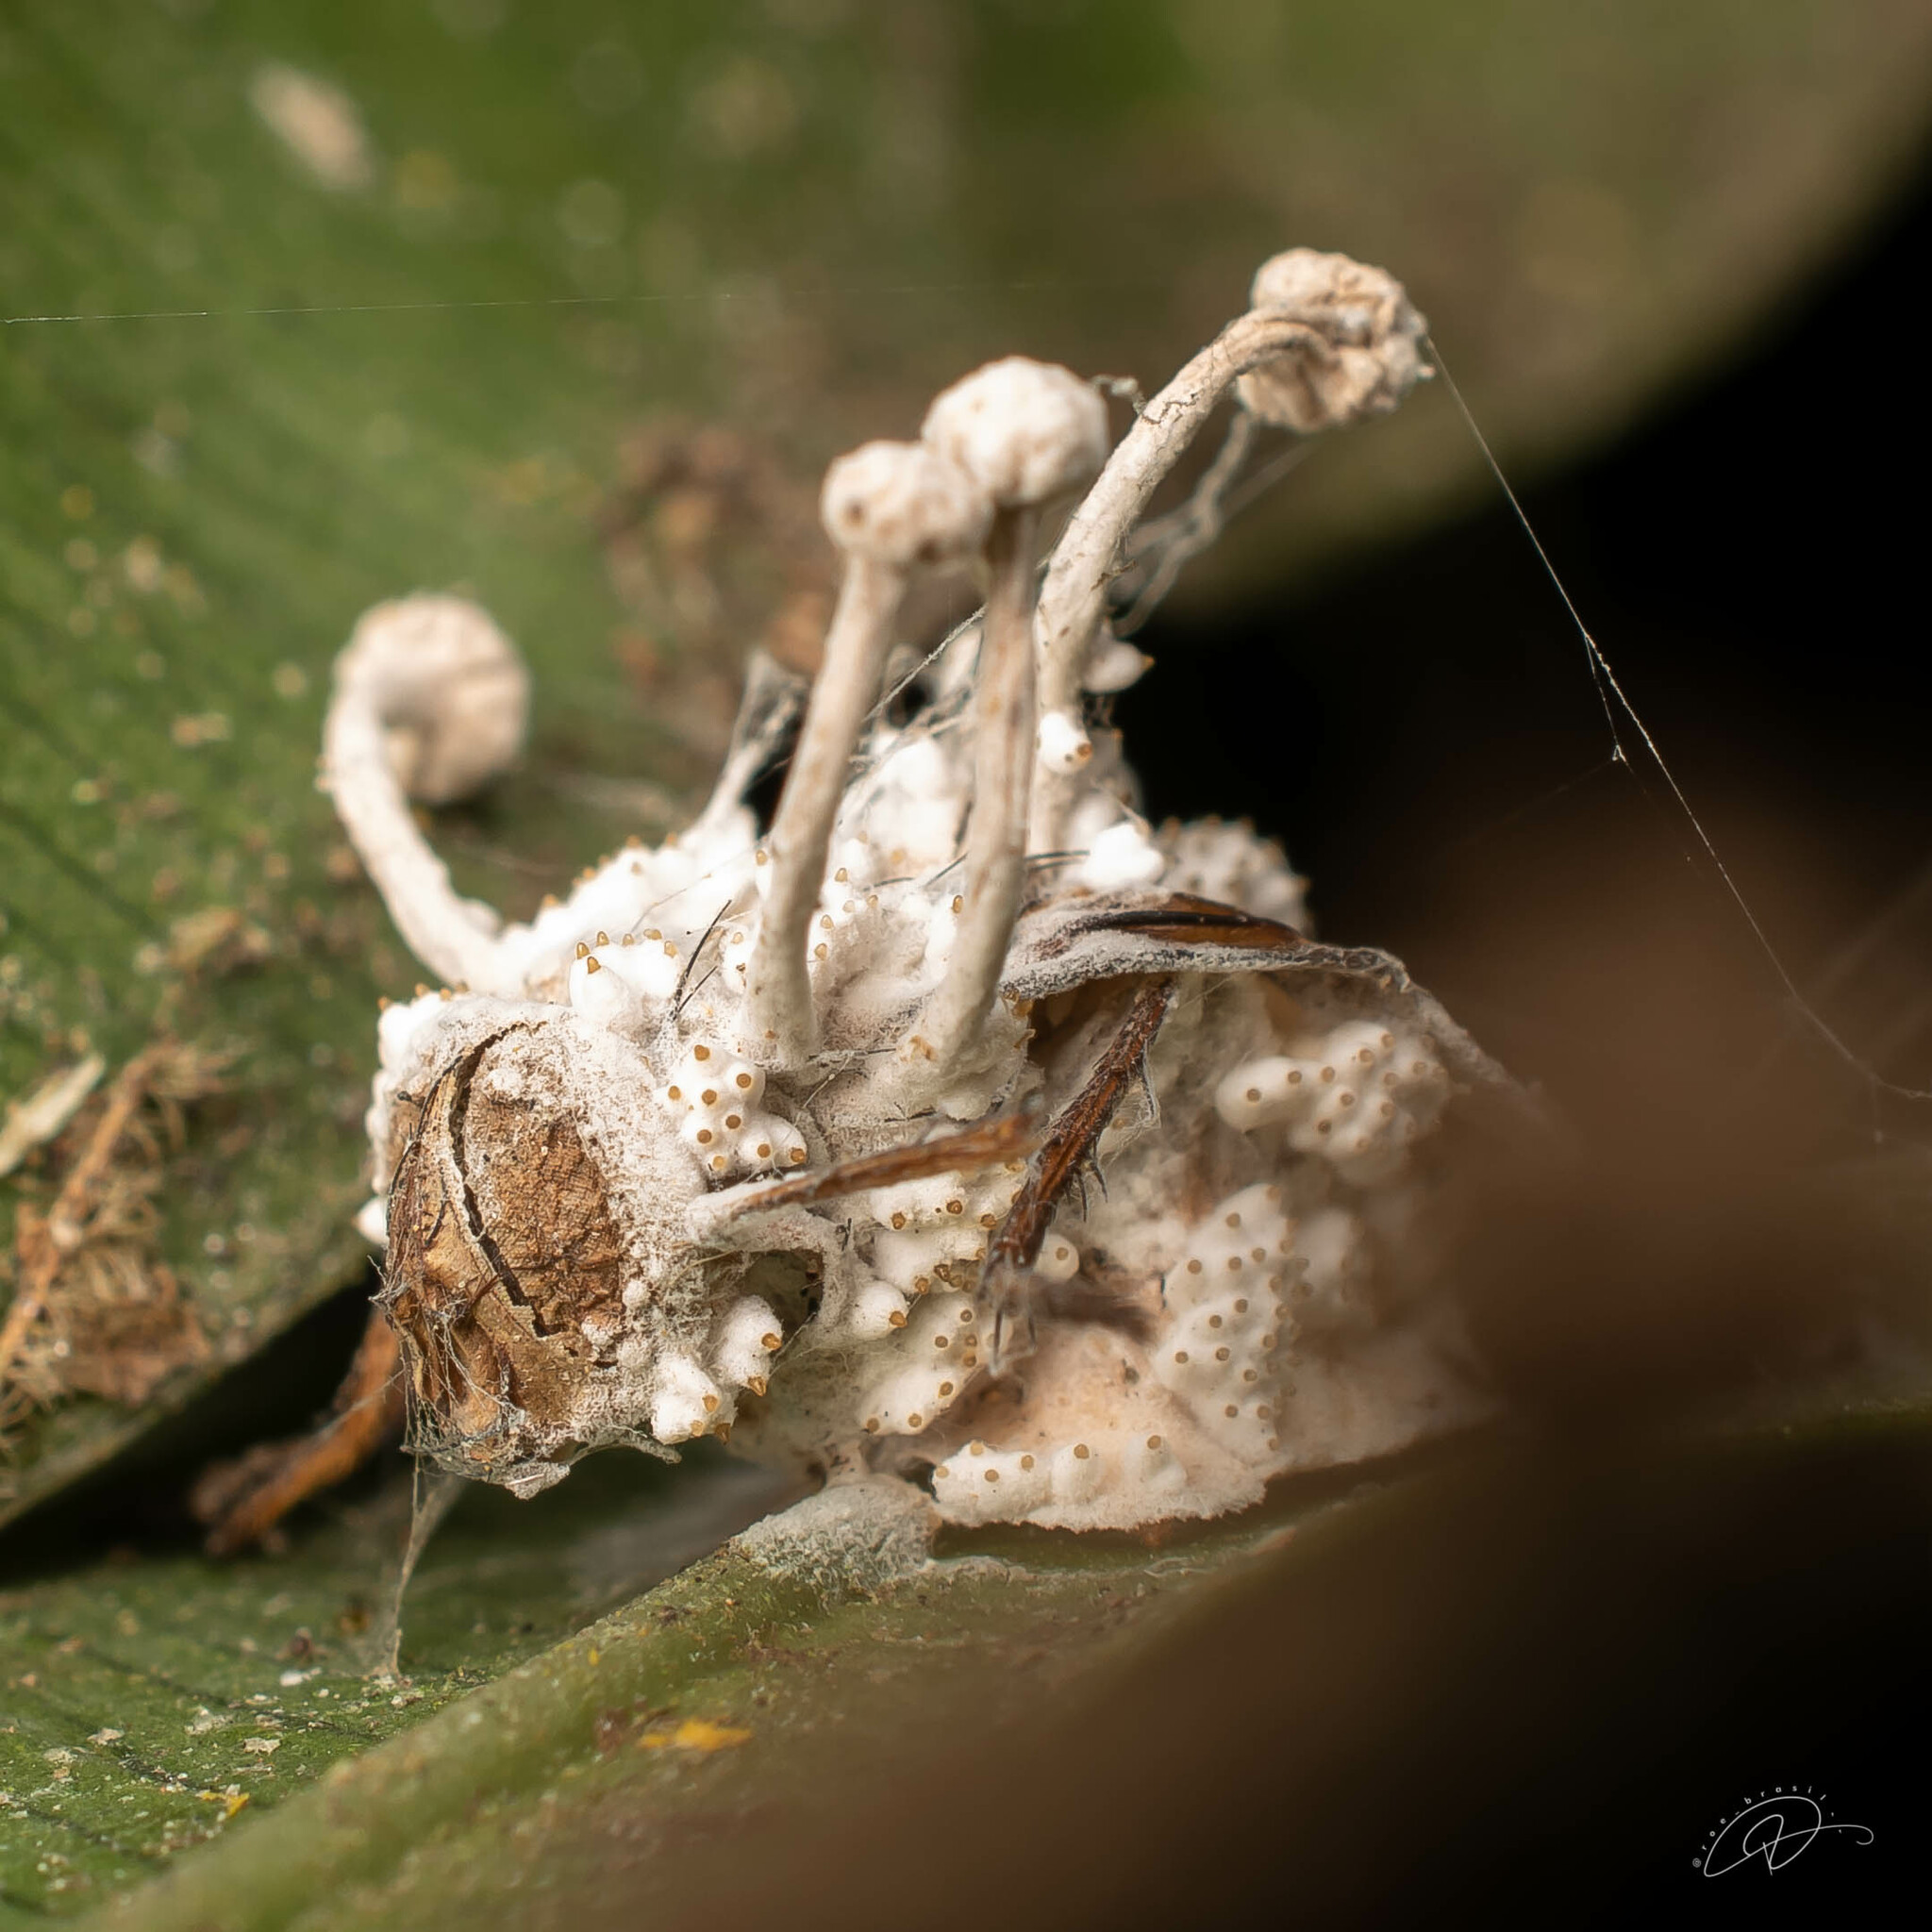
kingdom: Fungi
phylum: Ascomycota
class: Sordariomycetes
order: Hypocreales
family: Ophiocordycipitaceae
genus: Ophiocordyceps
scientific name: Ophiocordyceps dipterigena
